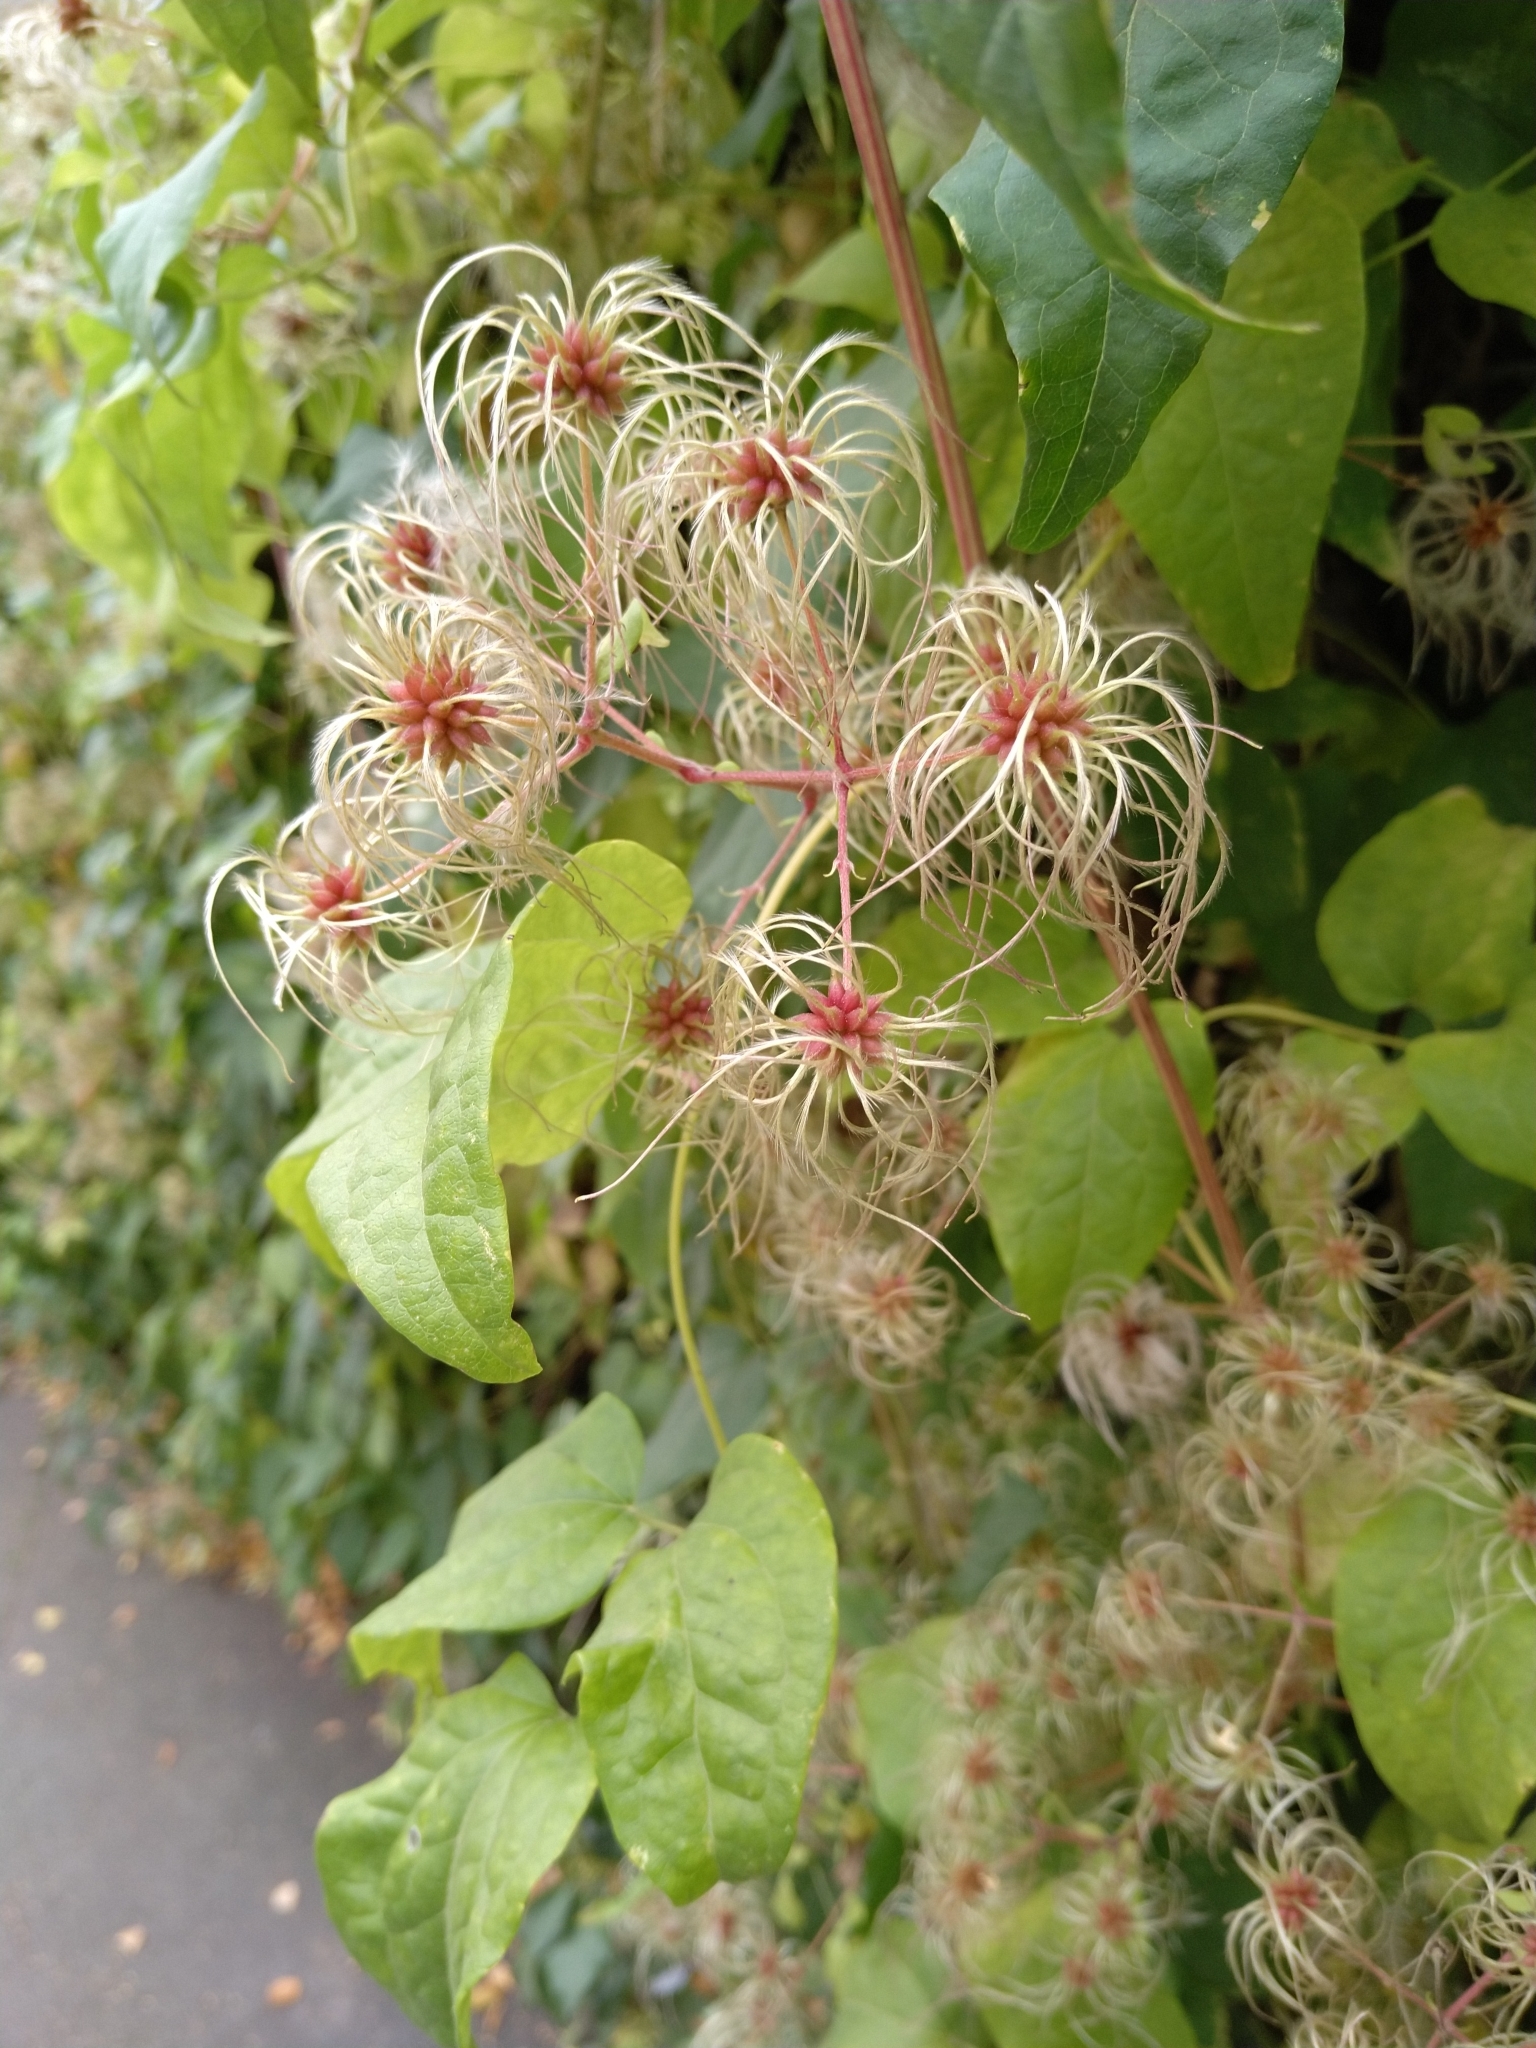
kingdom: Plantae
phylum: Tracheophyta
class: Magnoliopsida
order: Ranunculales
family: Ranunculaceae
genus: Clematis
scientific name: Clematis vitalba
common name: Evergreen clematis
